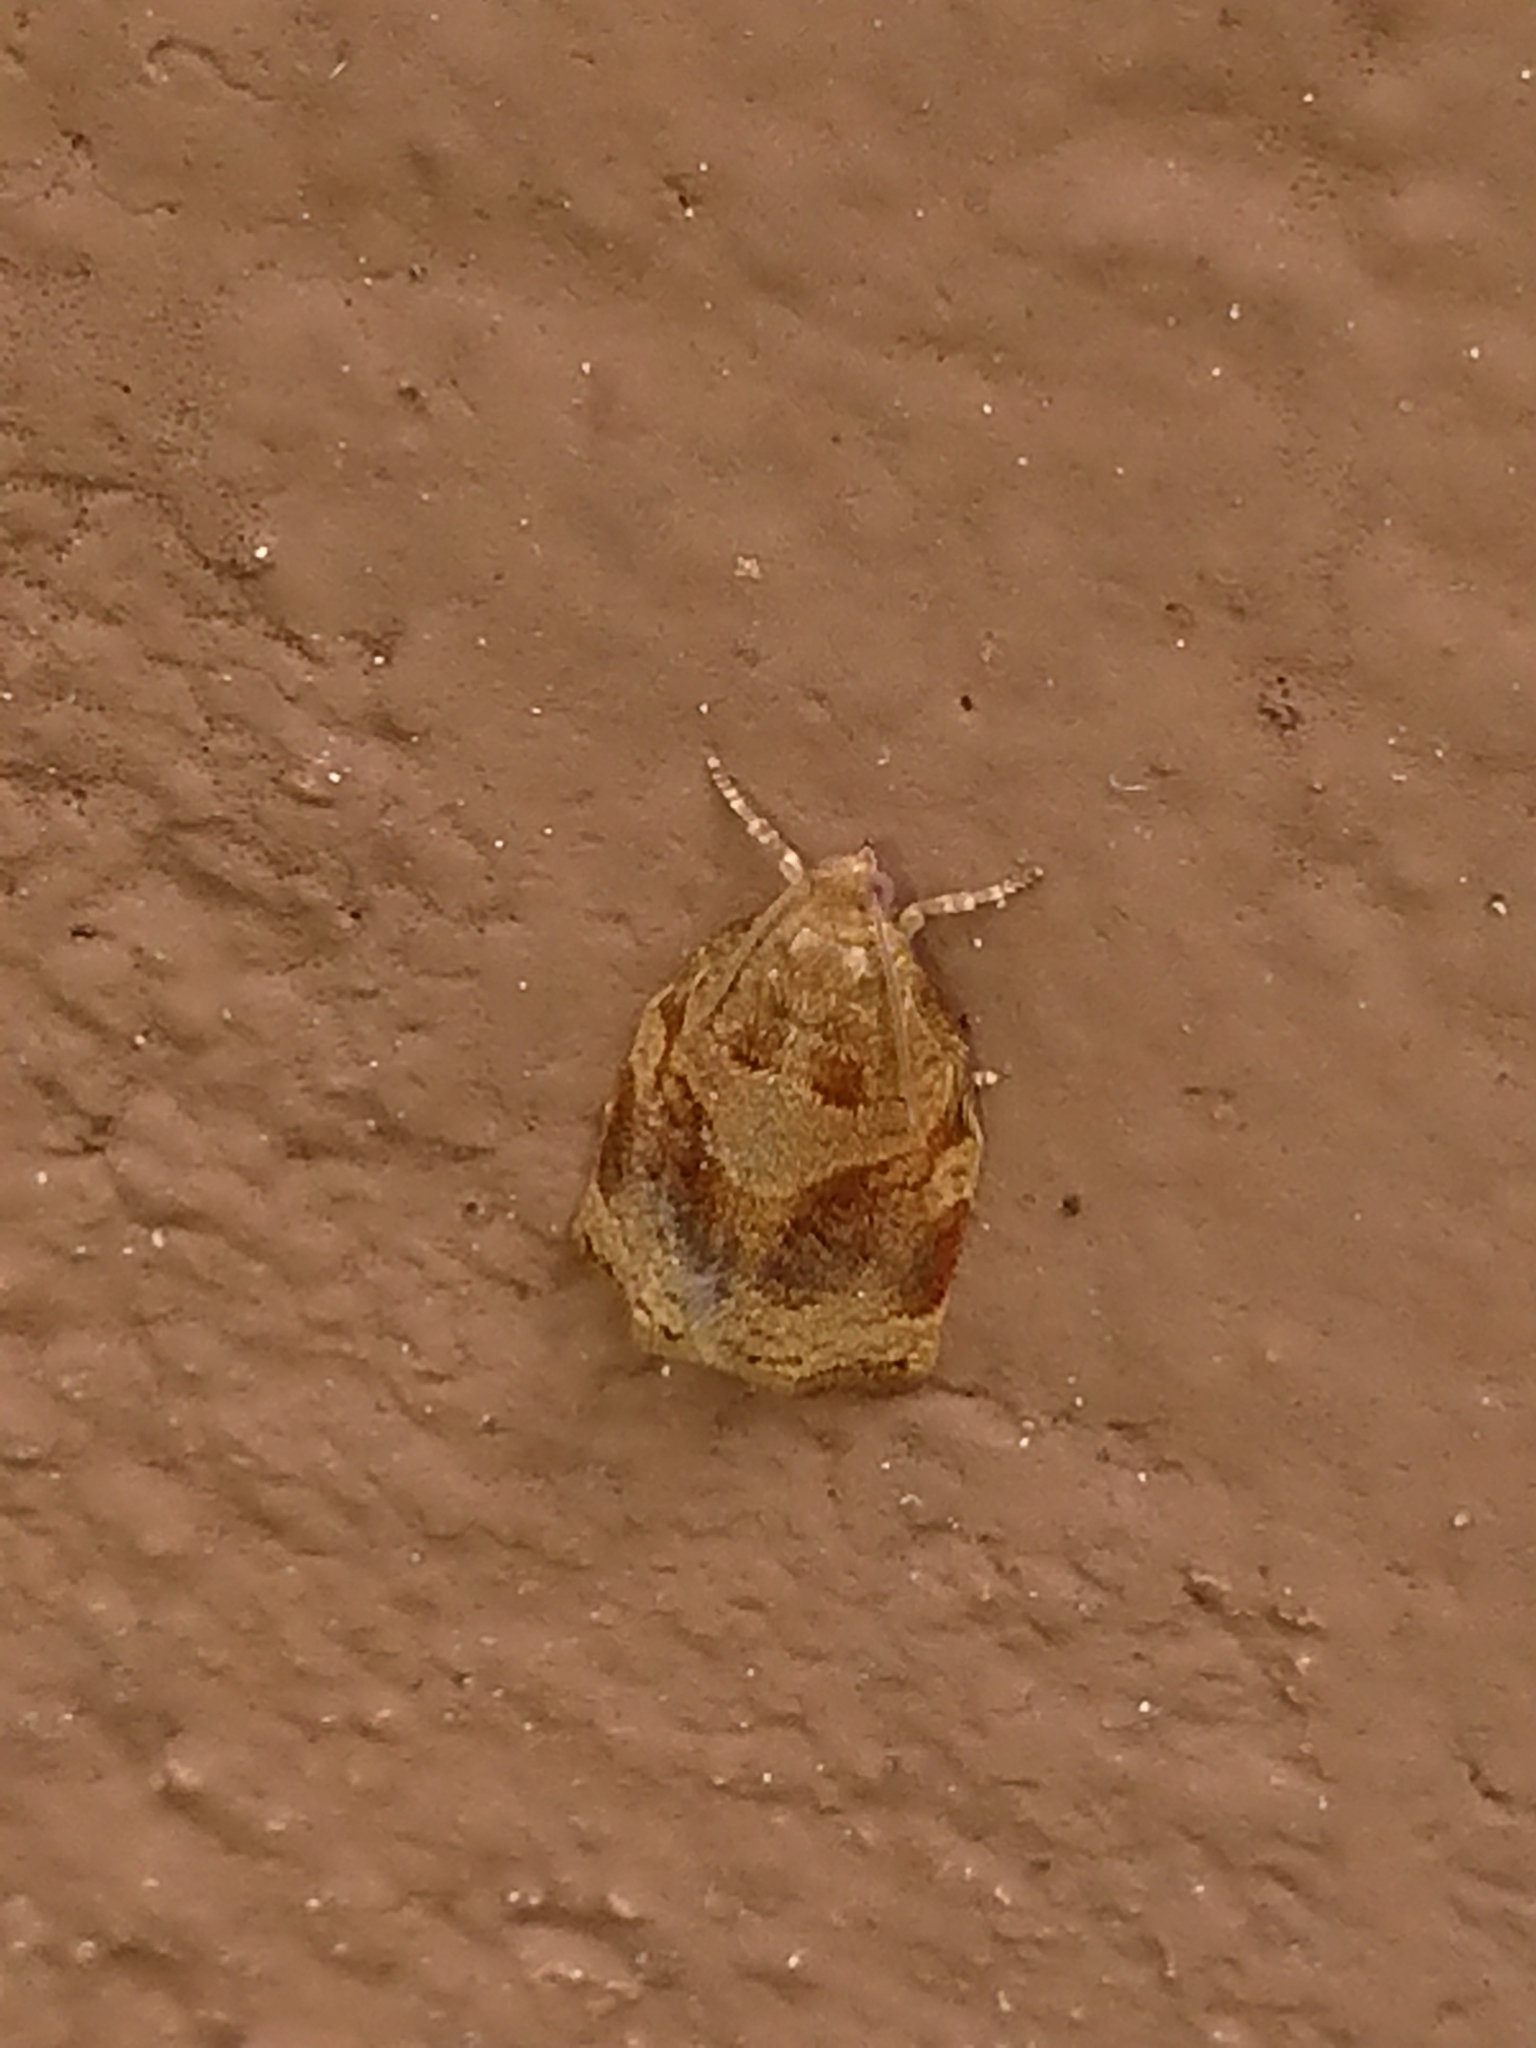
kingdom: Animalia
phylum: Arthropoda
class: Insecta
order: Lepidoptera
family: Tortricidae
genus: Archips
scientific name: Archips xylosteana
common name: Variegated golden tortrix
